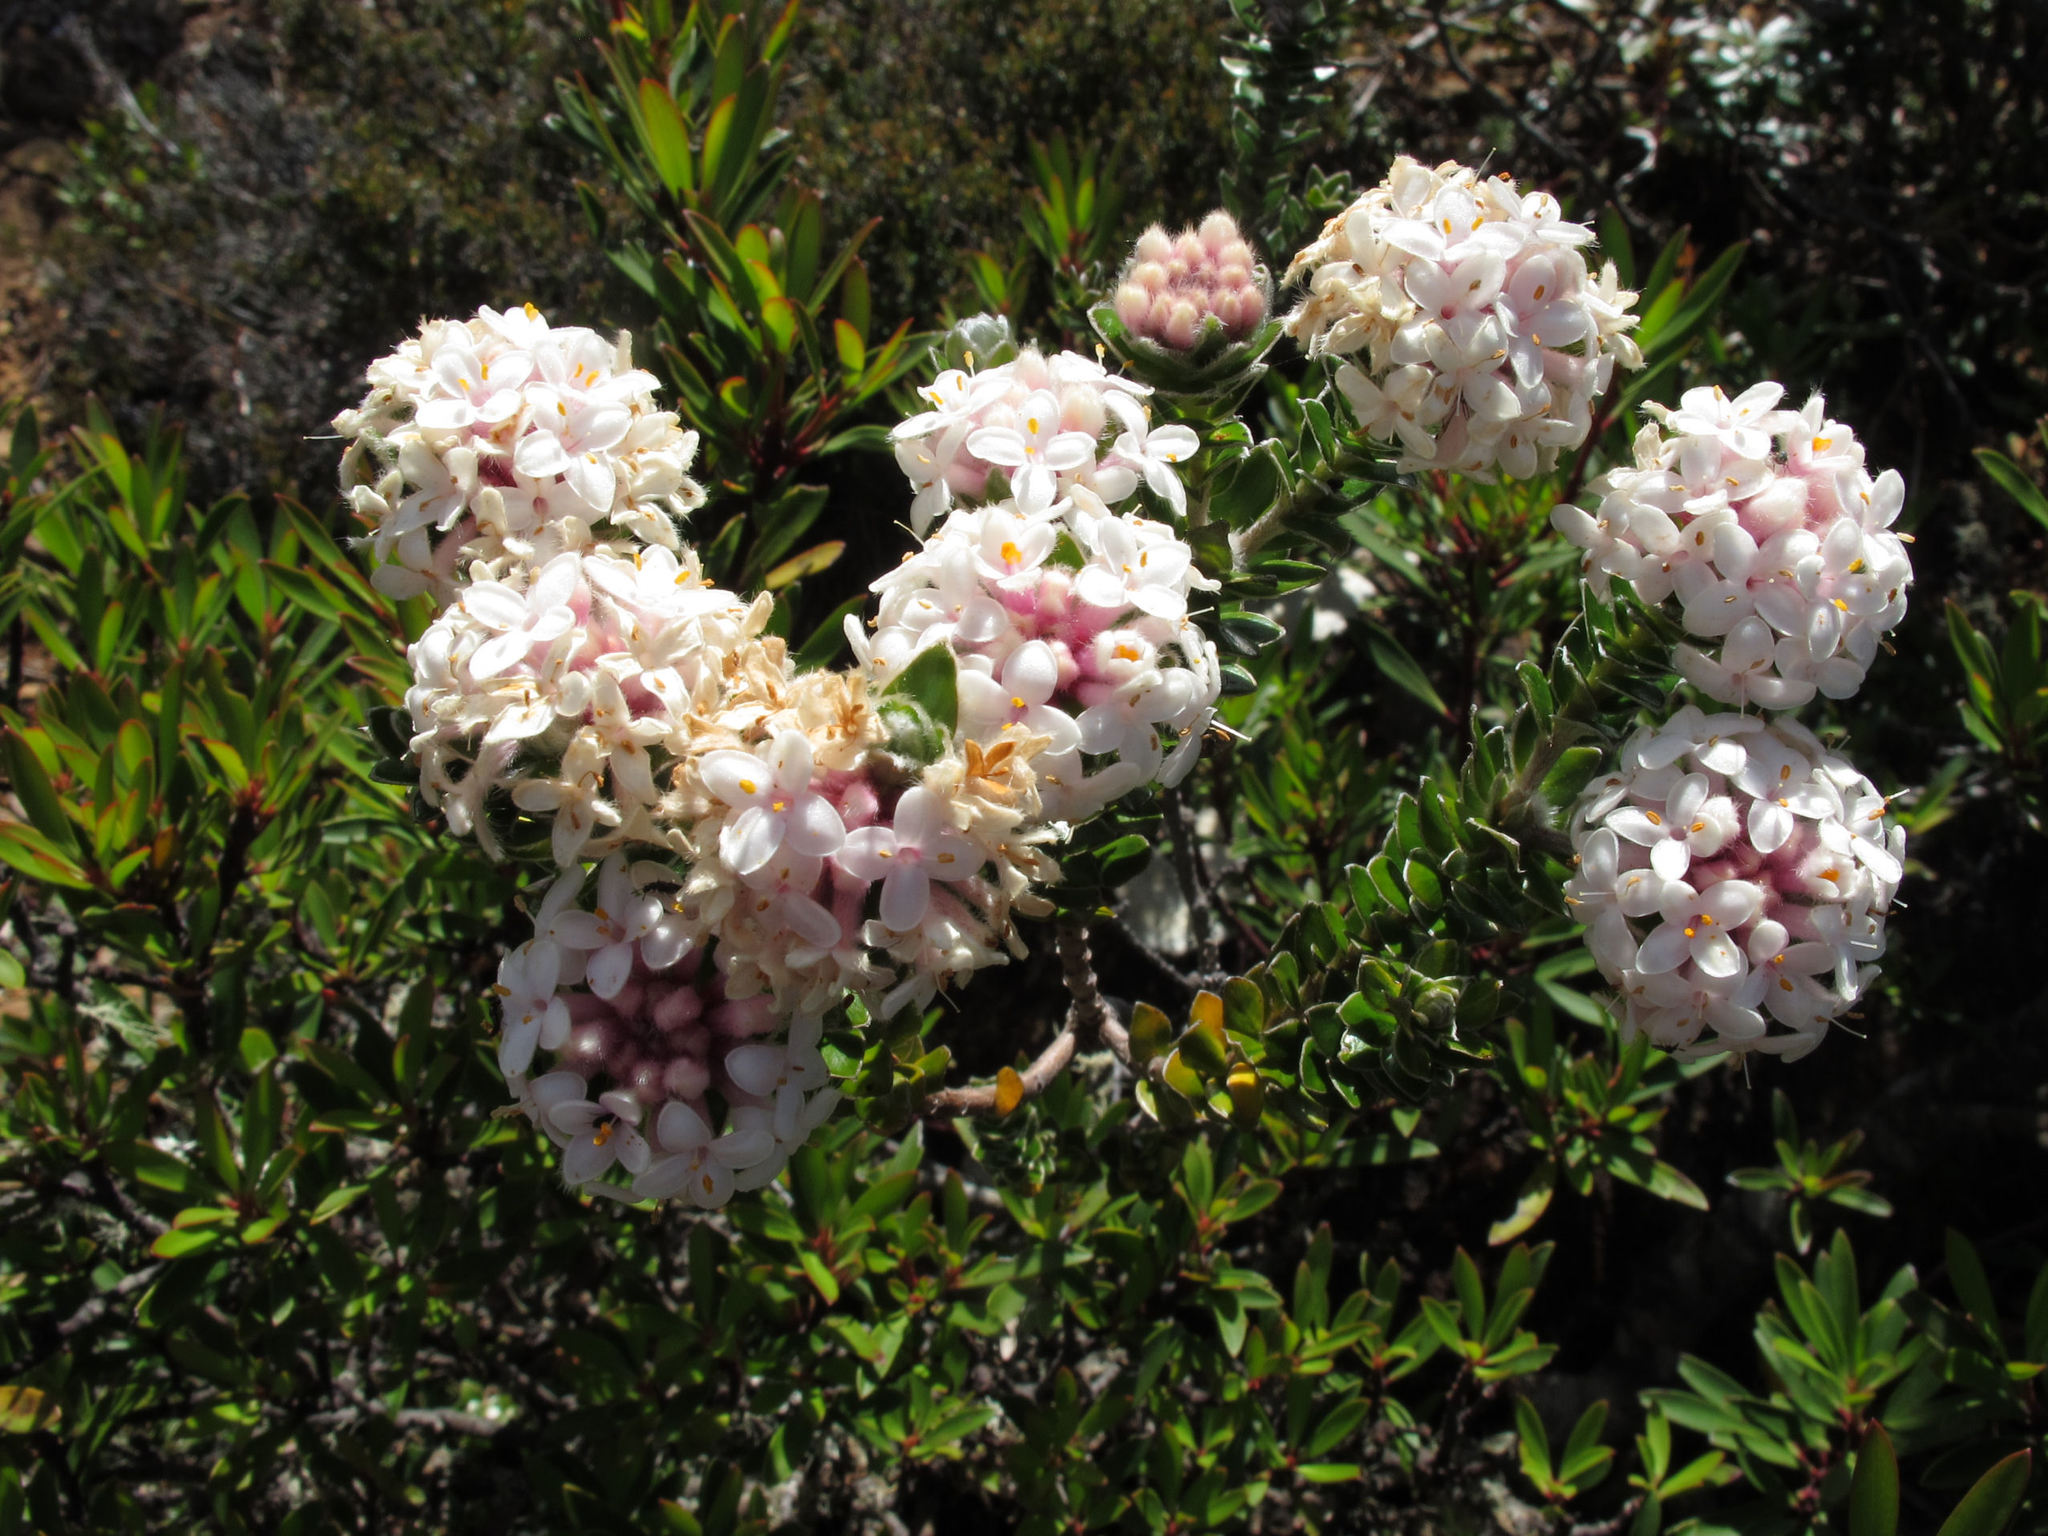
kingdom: Plantae
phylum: Tracheophyta
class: Magnoliopsida
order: Malvales
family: Thymelaeaceae
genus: Pimelea
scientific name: Pimelea sericea
